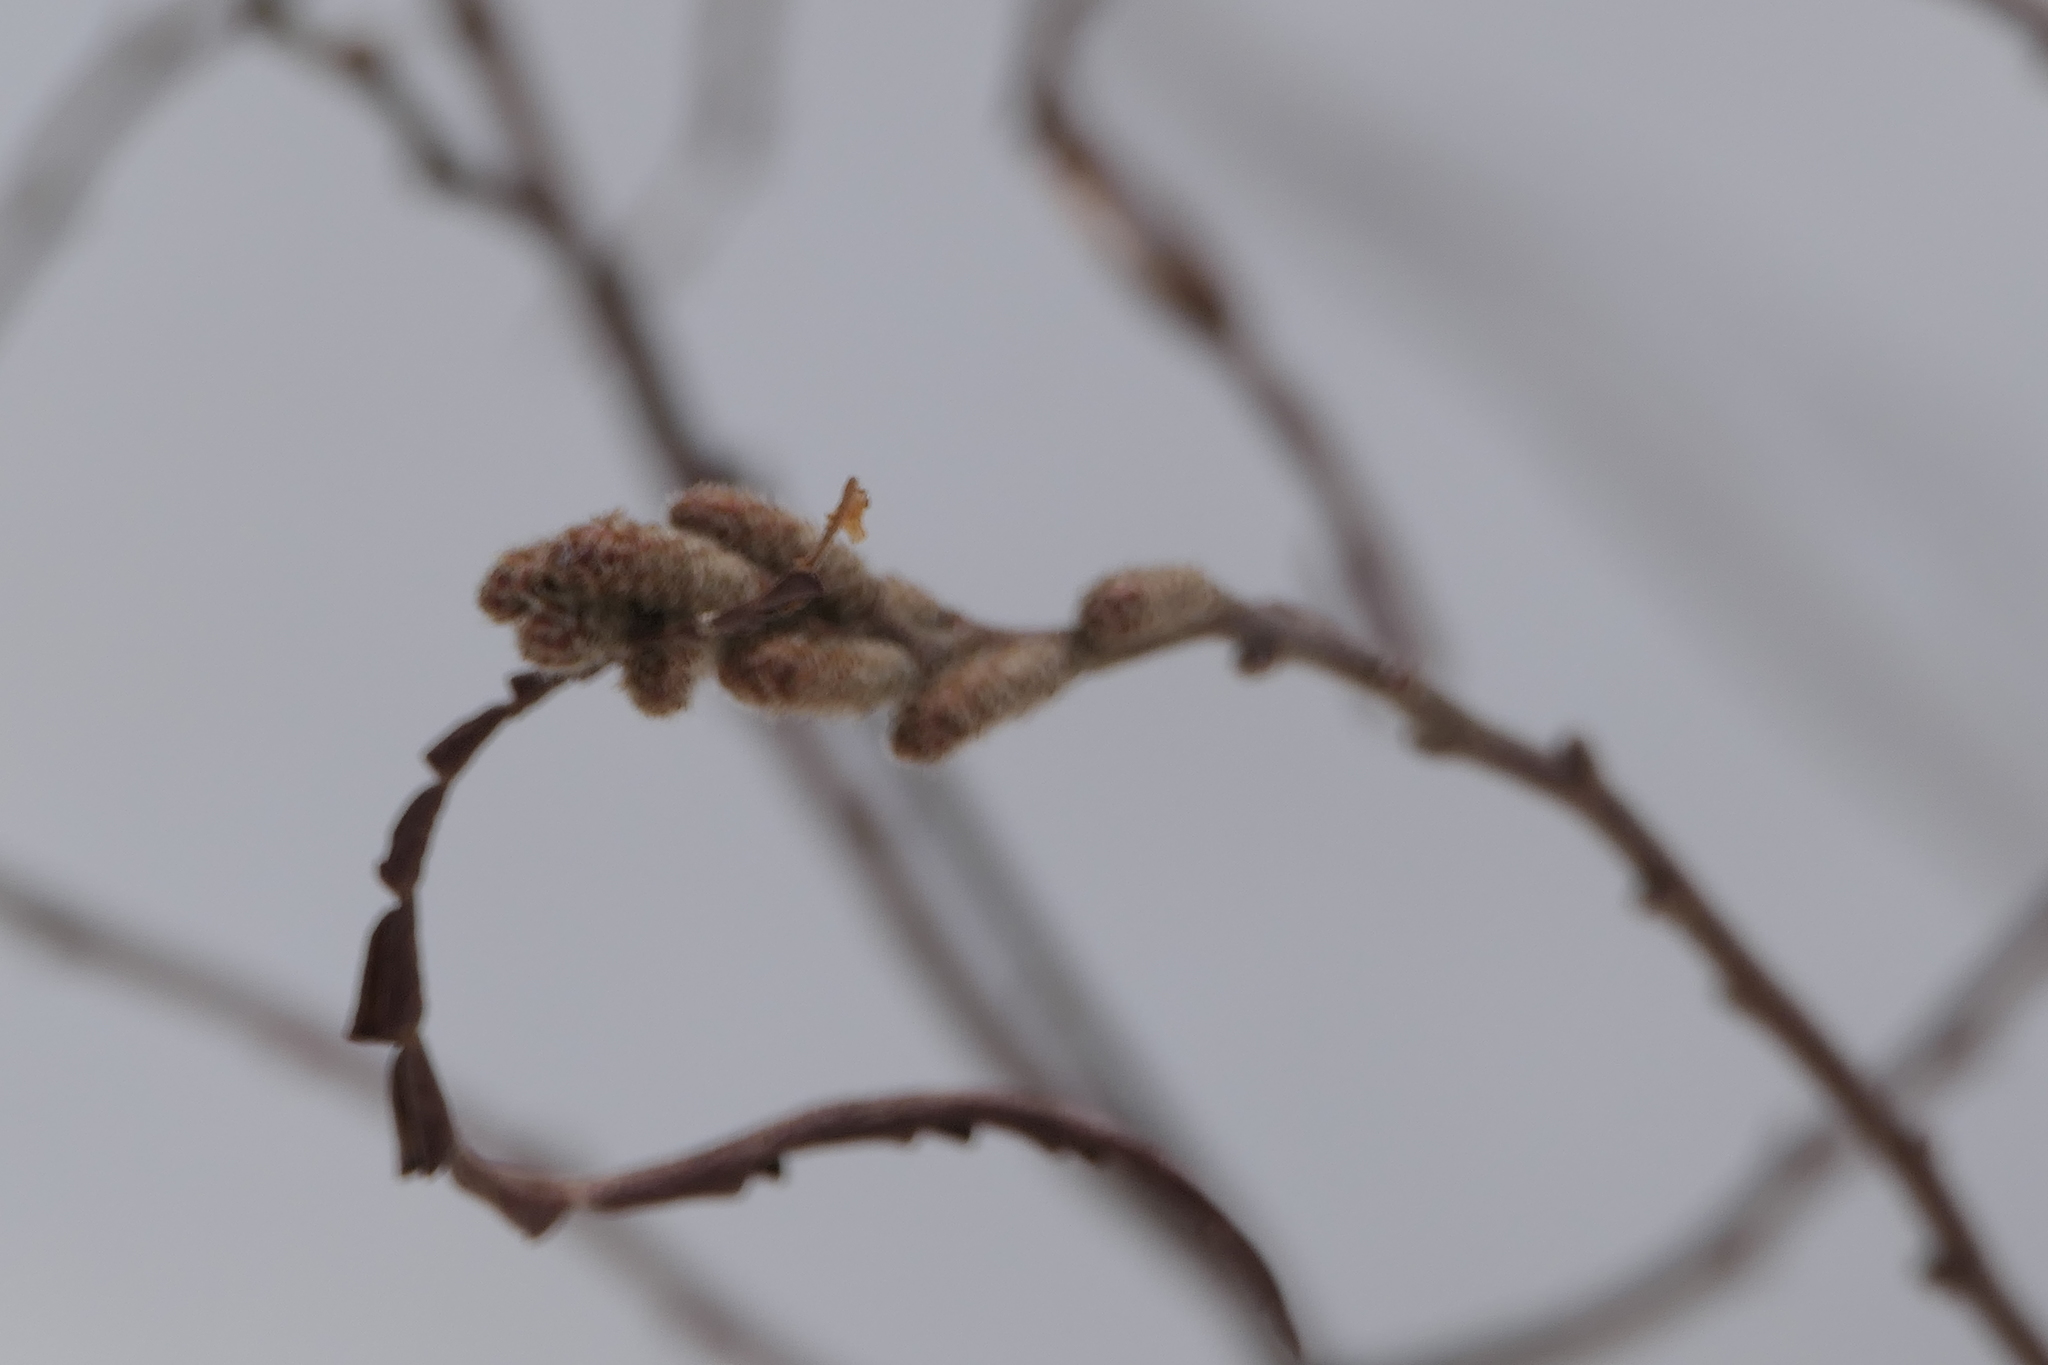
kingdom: Plantae
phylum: Tracheophyta
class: Magnoliopsida
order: Fagales
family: Myricaceae
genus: Comptonia
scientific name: Comptonia peregrina
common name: Sweet-fern
